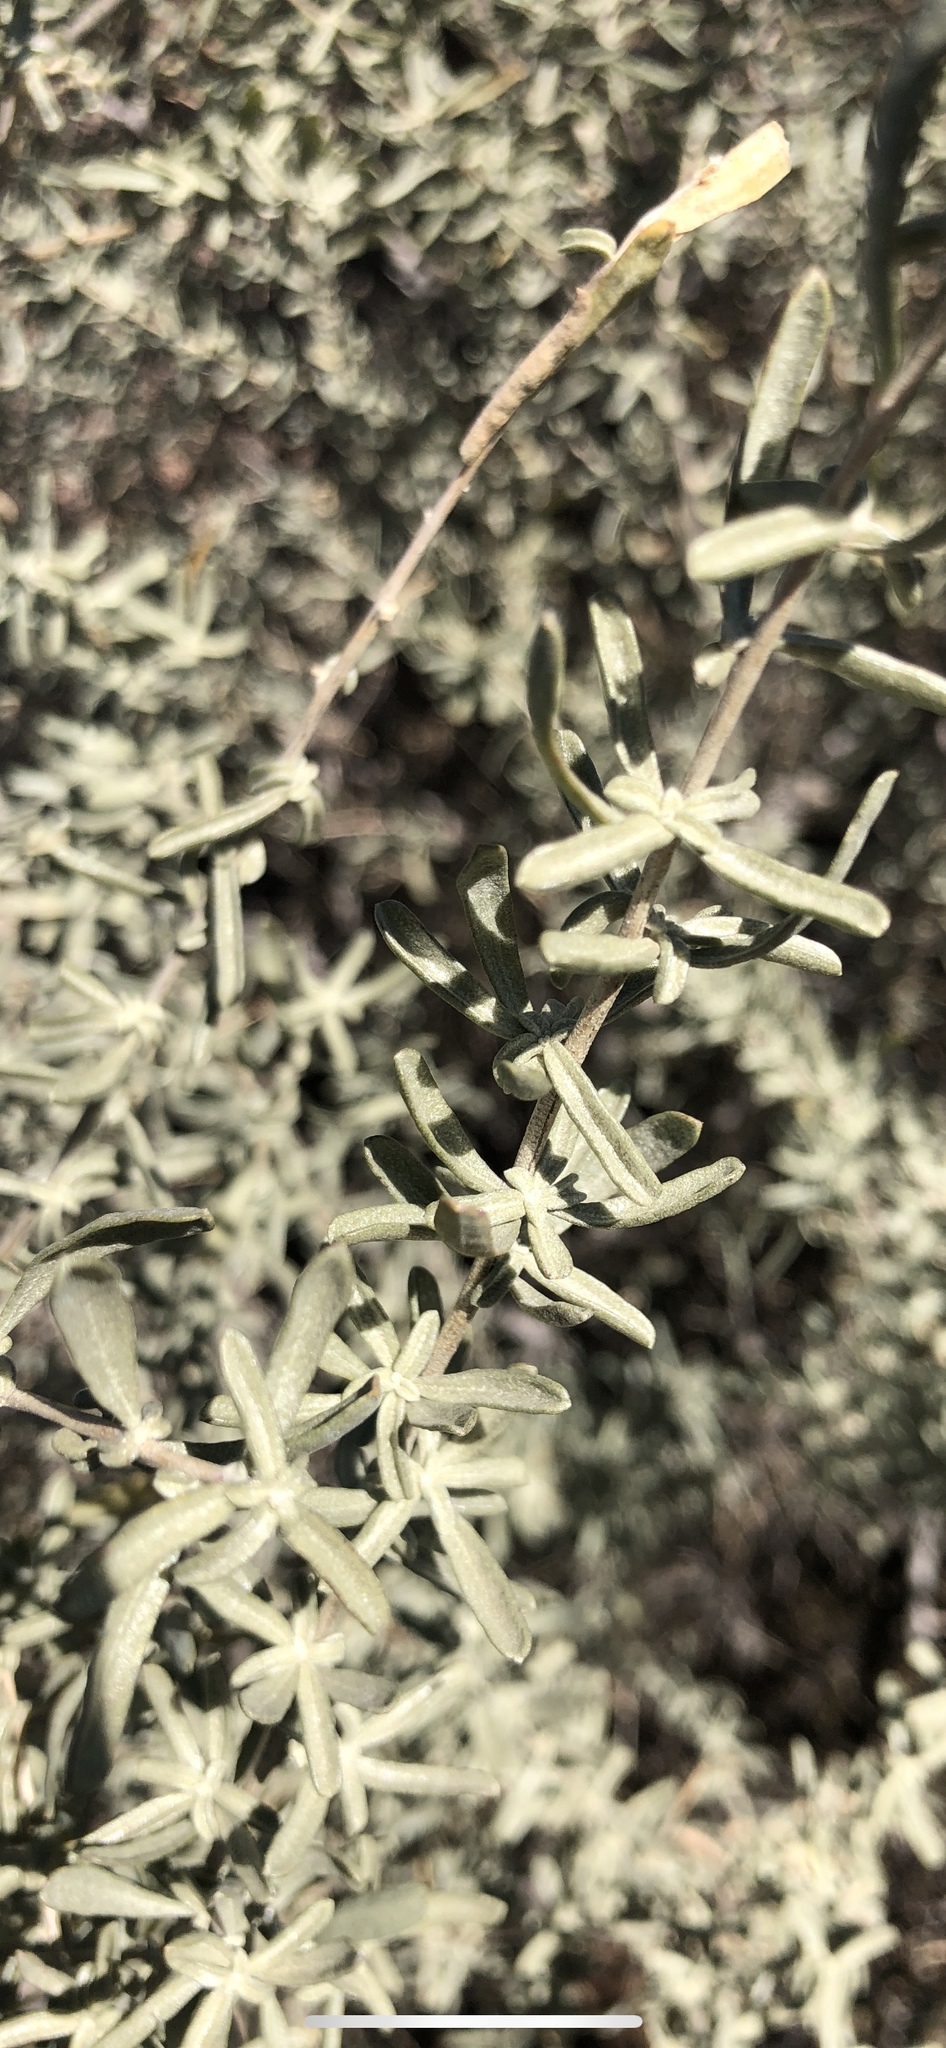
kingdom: Plantae
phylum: Tracheophyta
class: Magnoliopsida
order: Caryophyllales
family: Amaranthaceae
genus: Atriplex
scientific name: Atriplex canescens
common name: Four-wing saltbush
